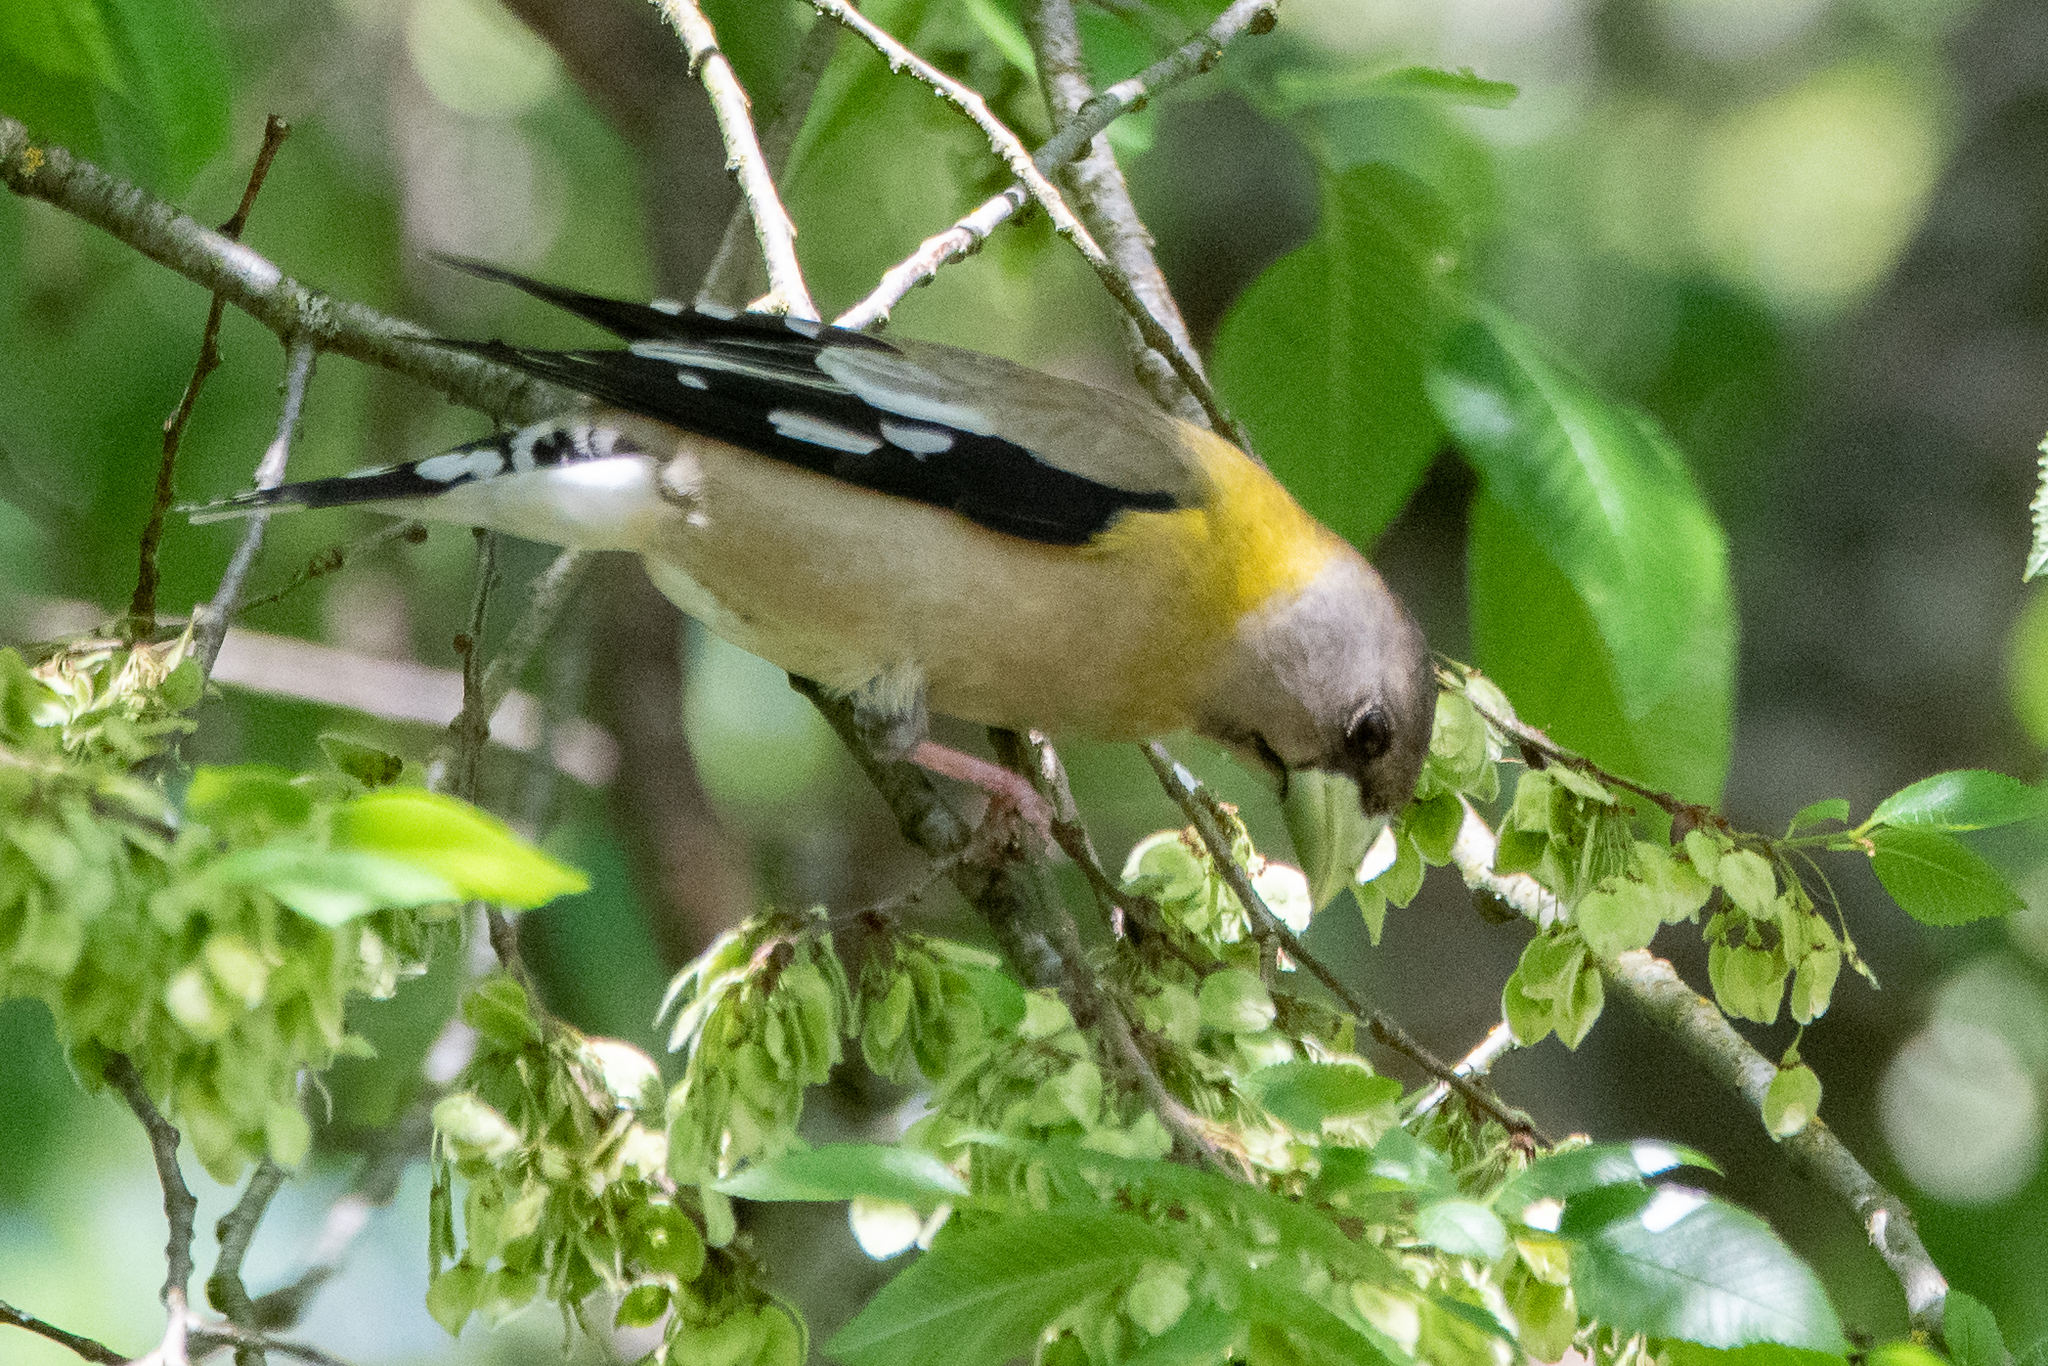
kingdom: Animalia
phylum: Chordata
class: Aves
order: Passeriformes
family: Fringillidae
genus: Hesperiphona
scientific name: Hesperiphona vespertina
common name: Evening grosbeak
